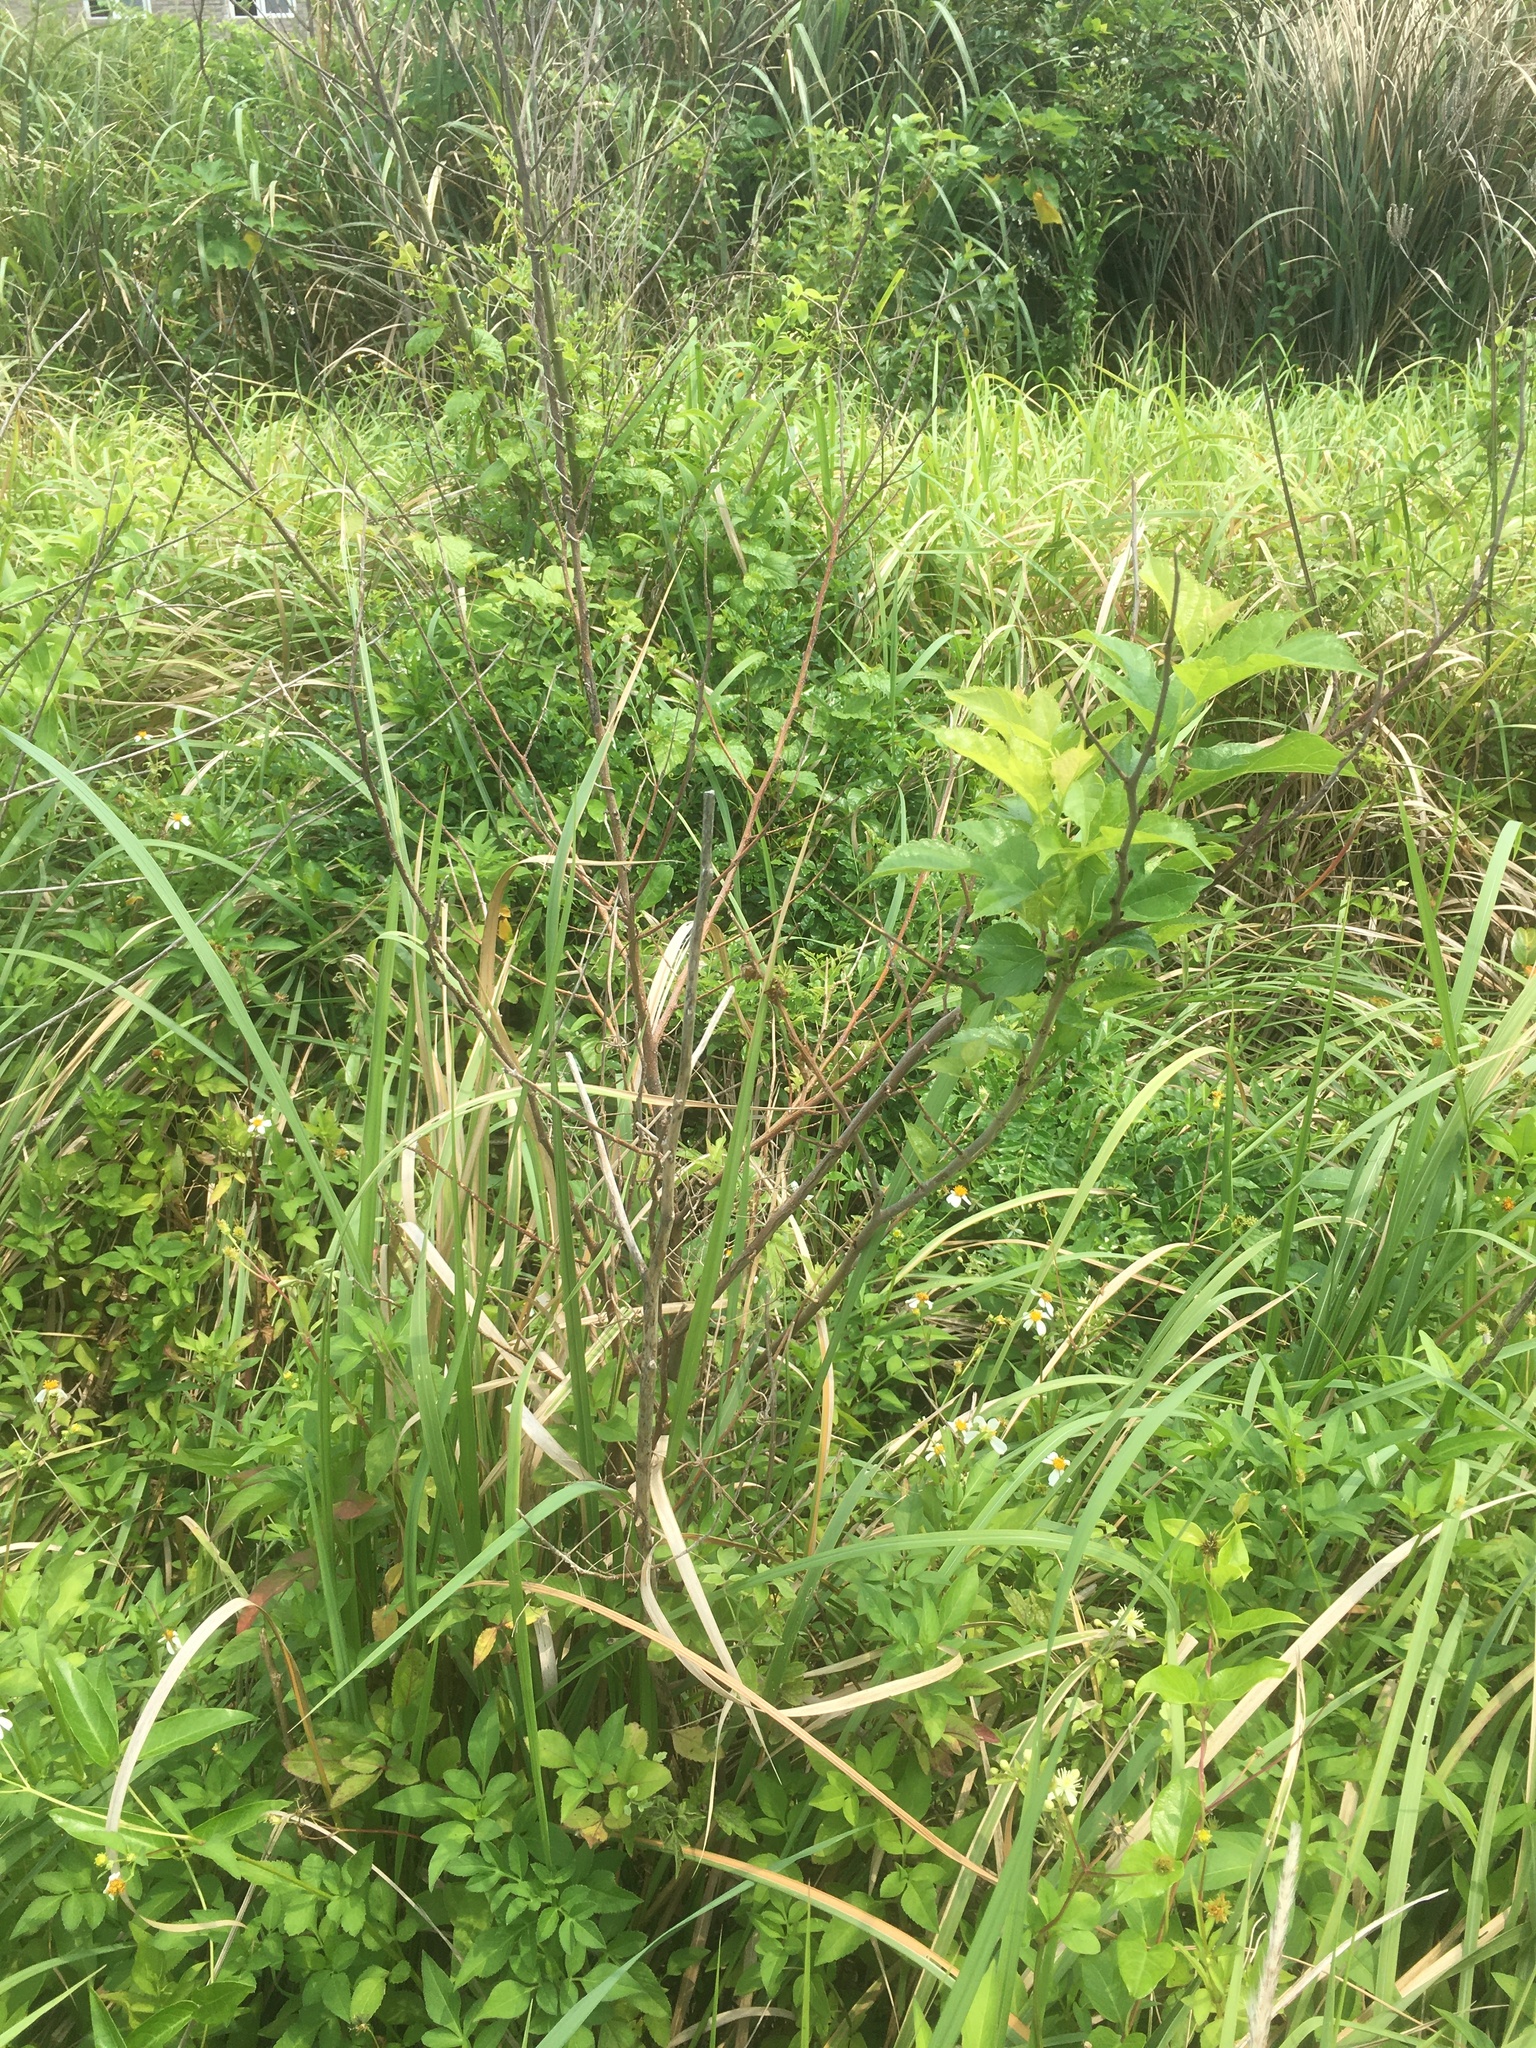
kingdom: Plantae
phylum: Tracheophyta
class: Magnoliopsida
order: Rosales
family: Moraceae
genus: Morus
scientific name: Morus indica
